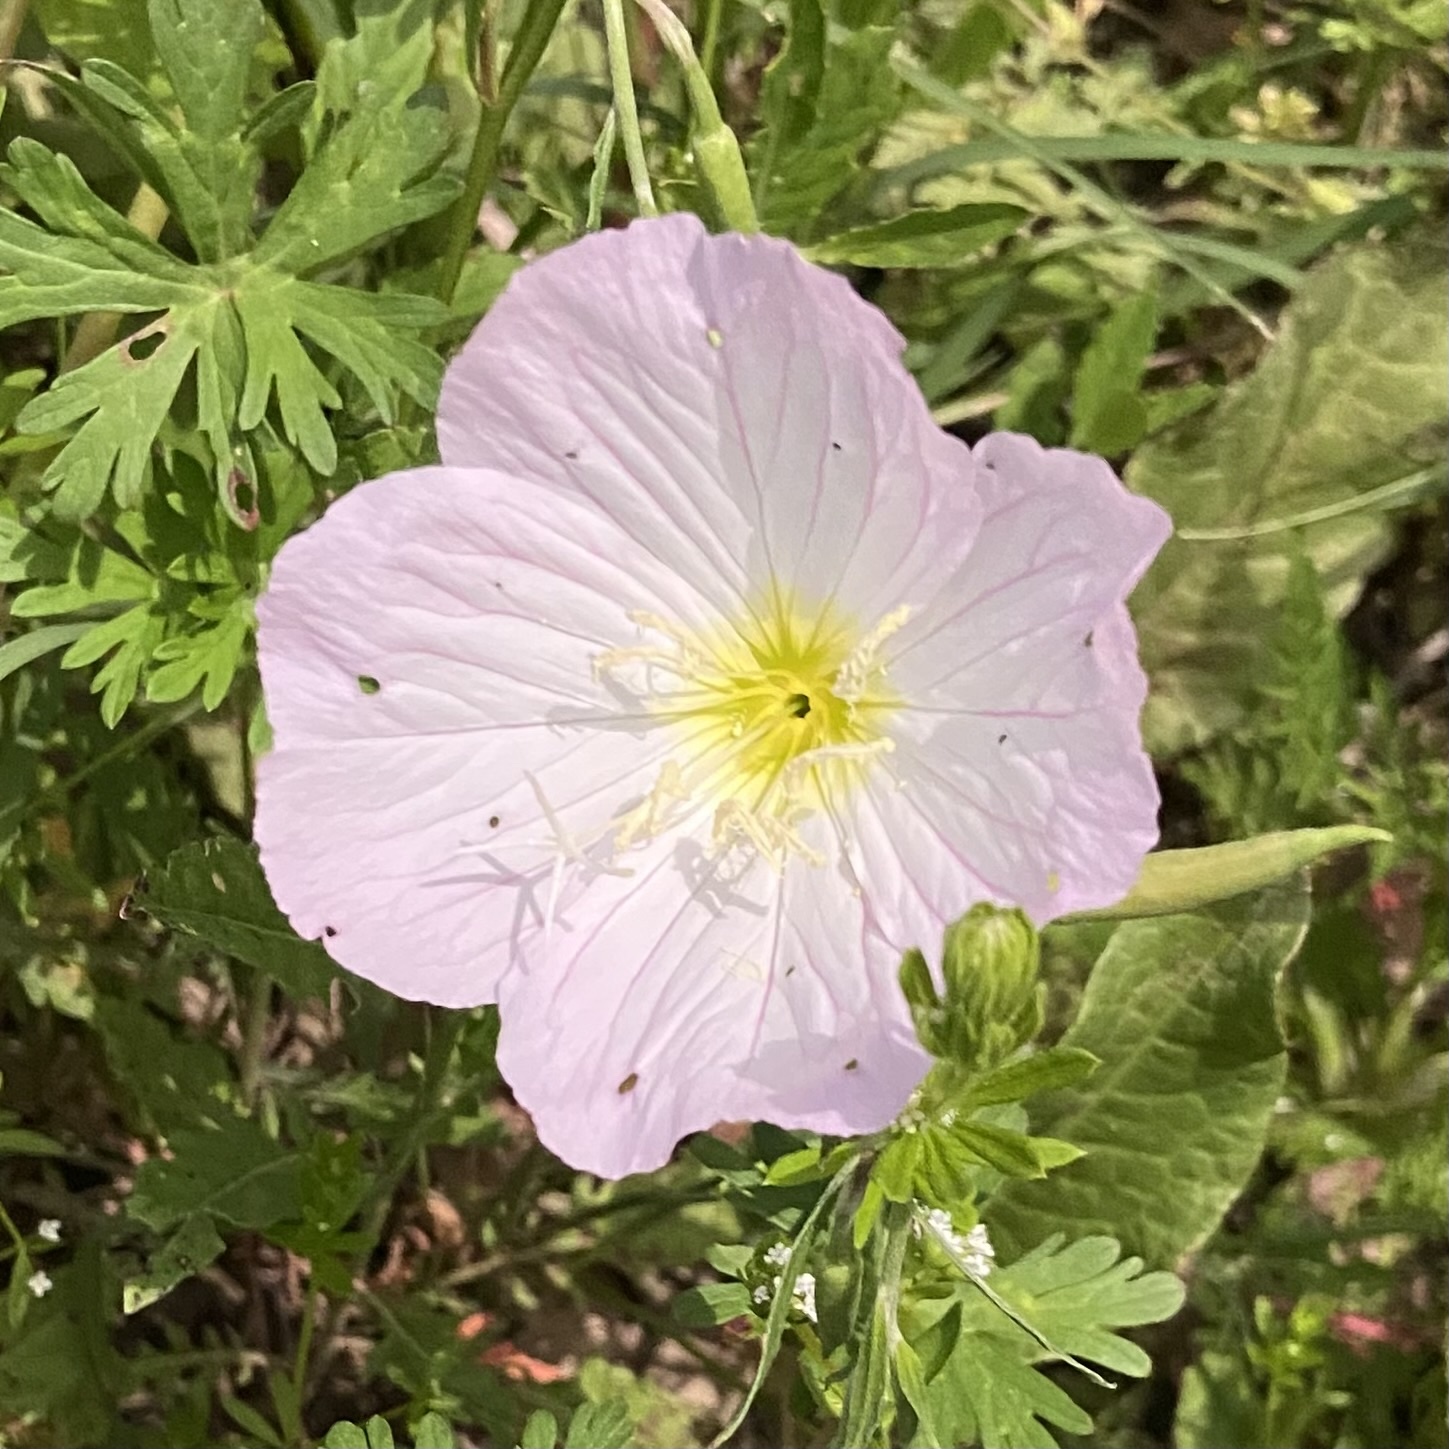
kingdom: Plantae
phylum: Tracheophyta
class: Magnoliopsida
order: Myrtales
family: Onagraceae
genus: Oenothera
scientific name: Oenothera speciosa
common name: White evening-primrose
